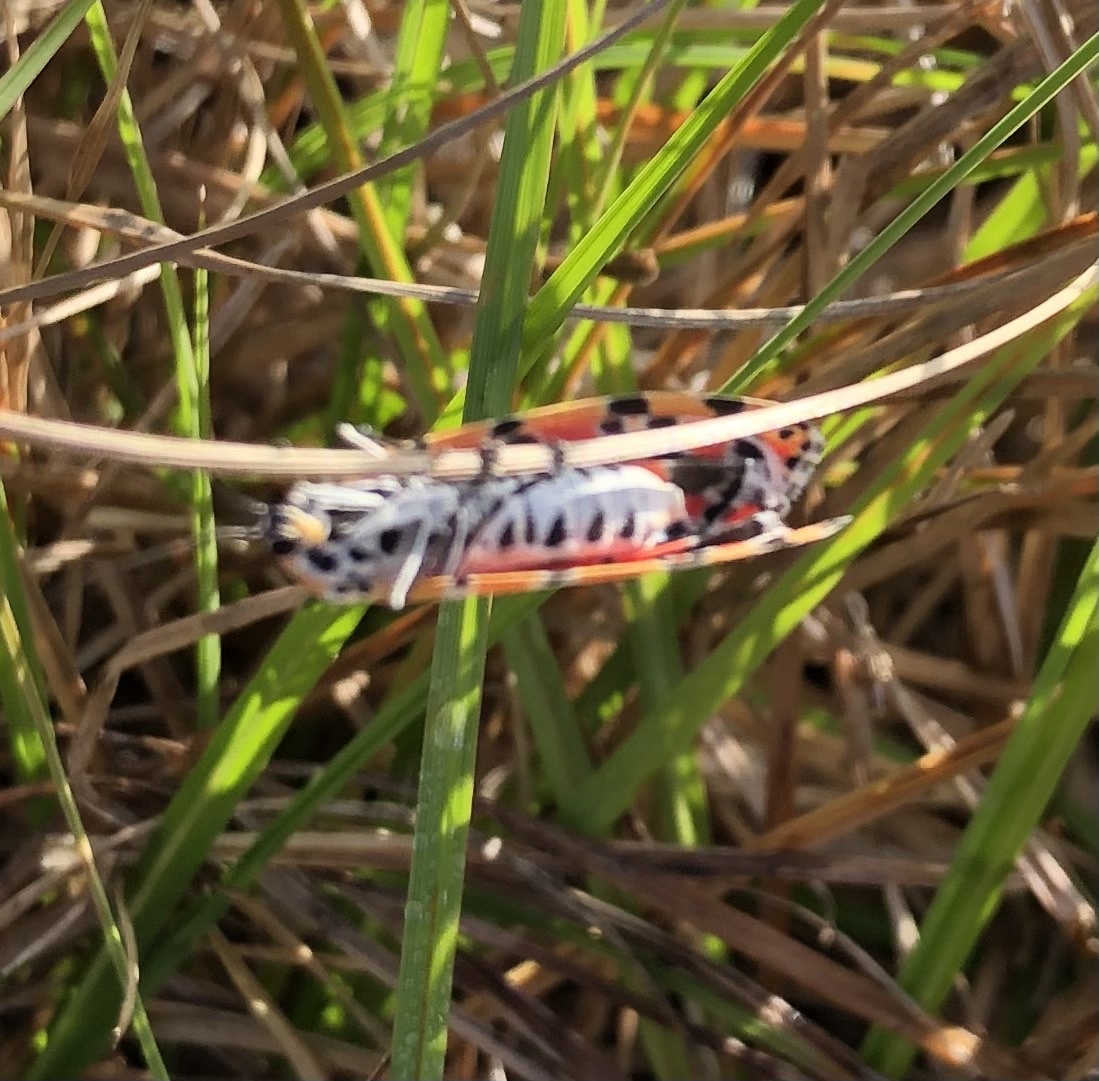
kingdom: Animalia
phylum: Arthropoda
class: Insecta
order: Lepidoptera
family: Erebidae
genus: Utetheisa
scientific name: Utetheisa ornatrix
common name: Beautiful utetheisa
